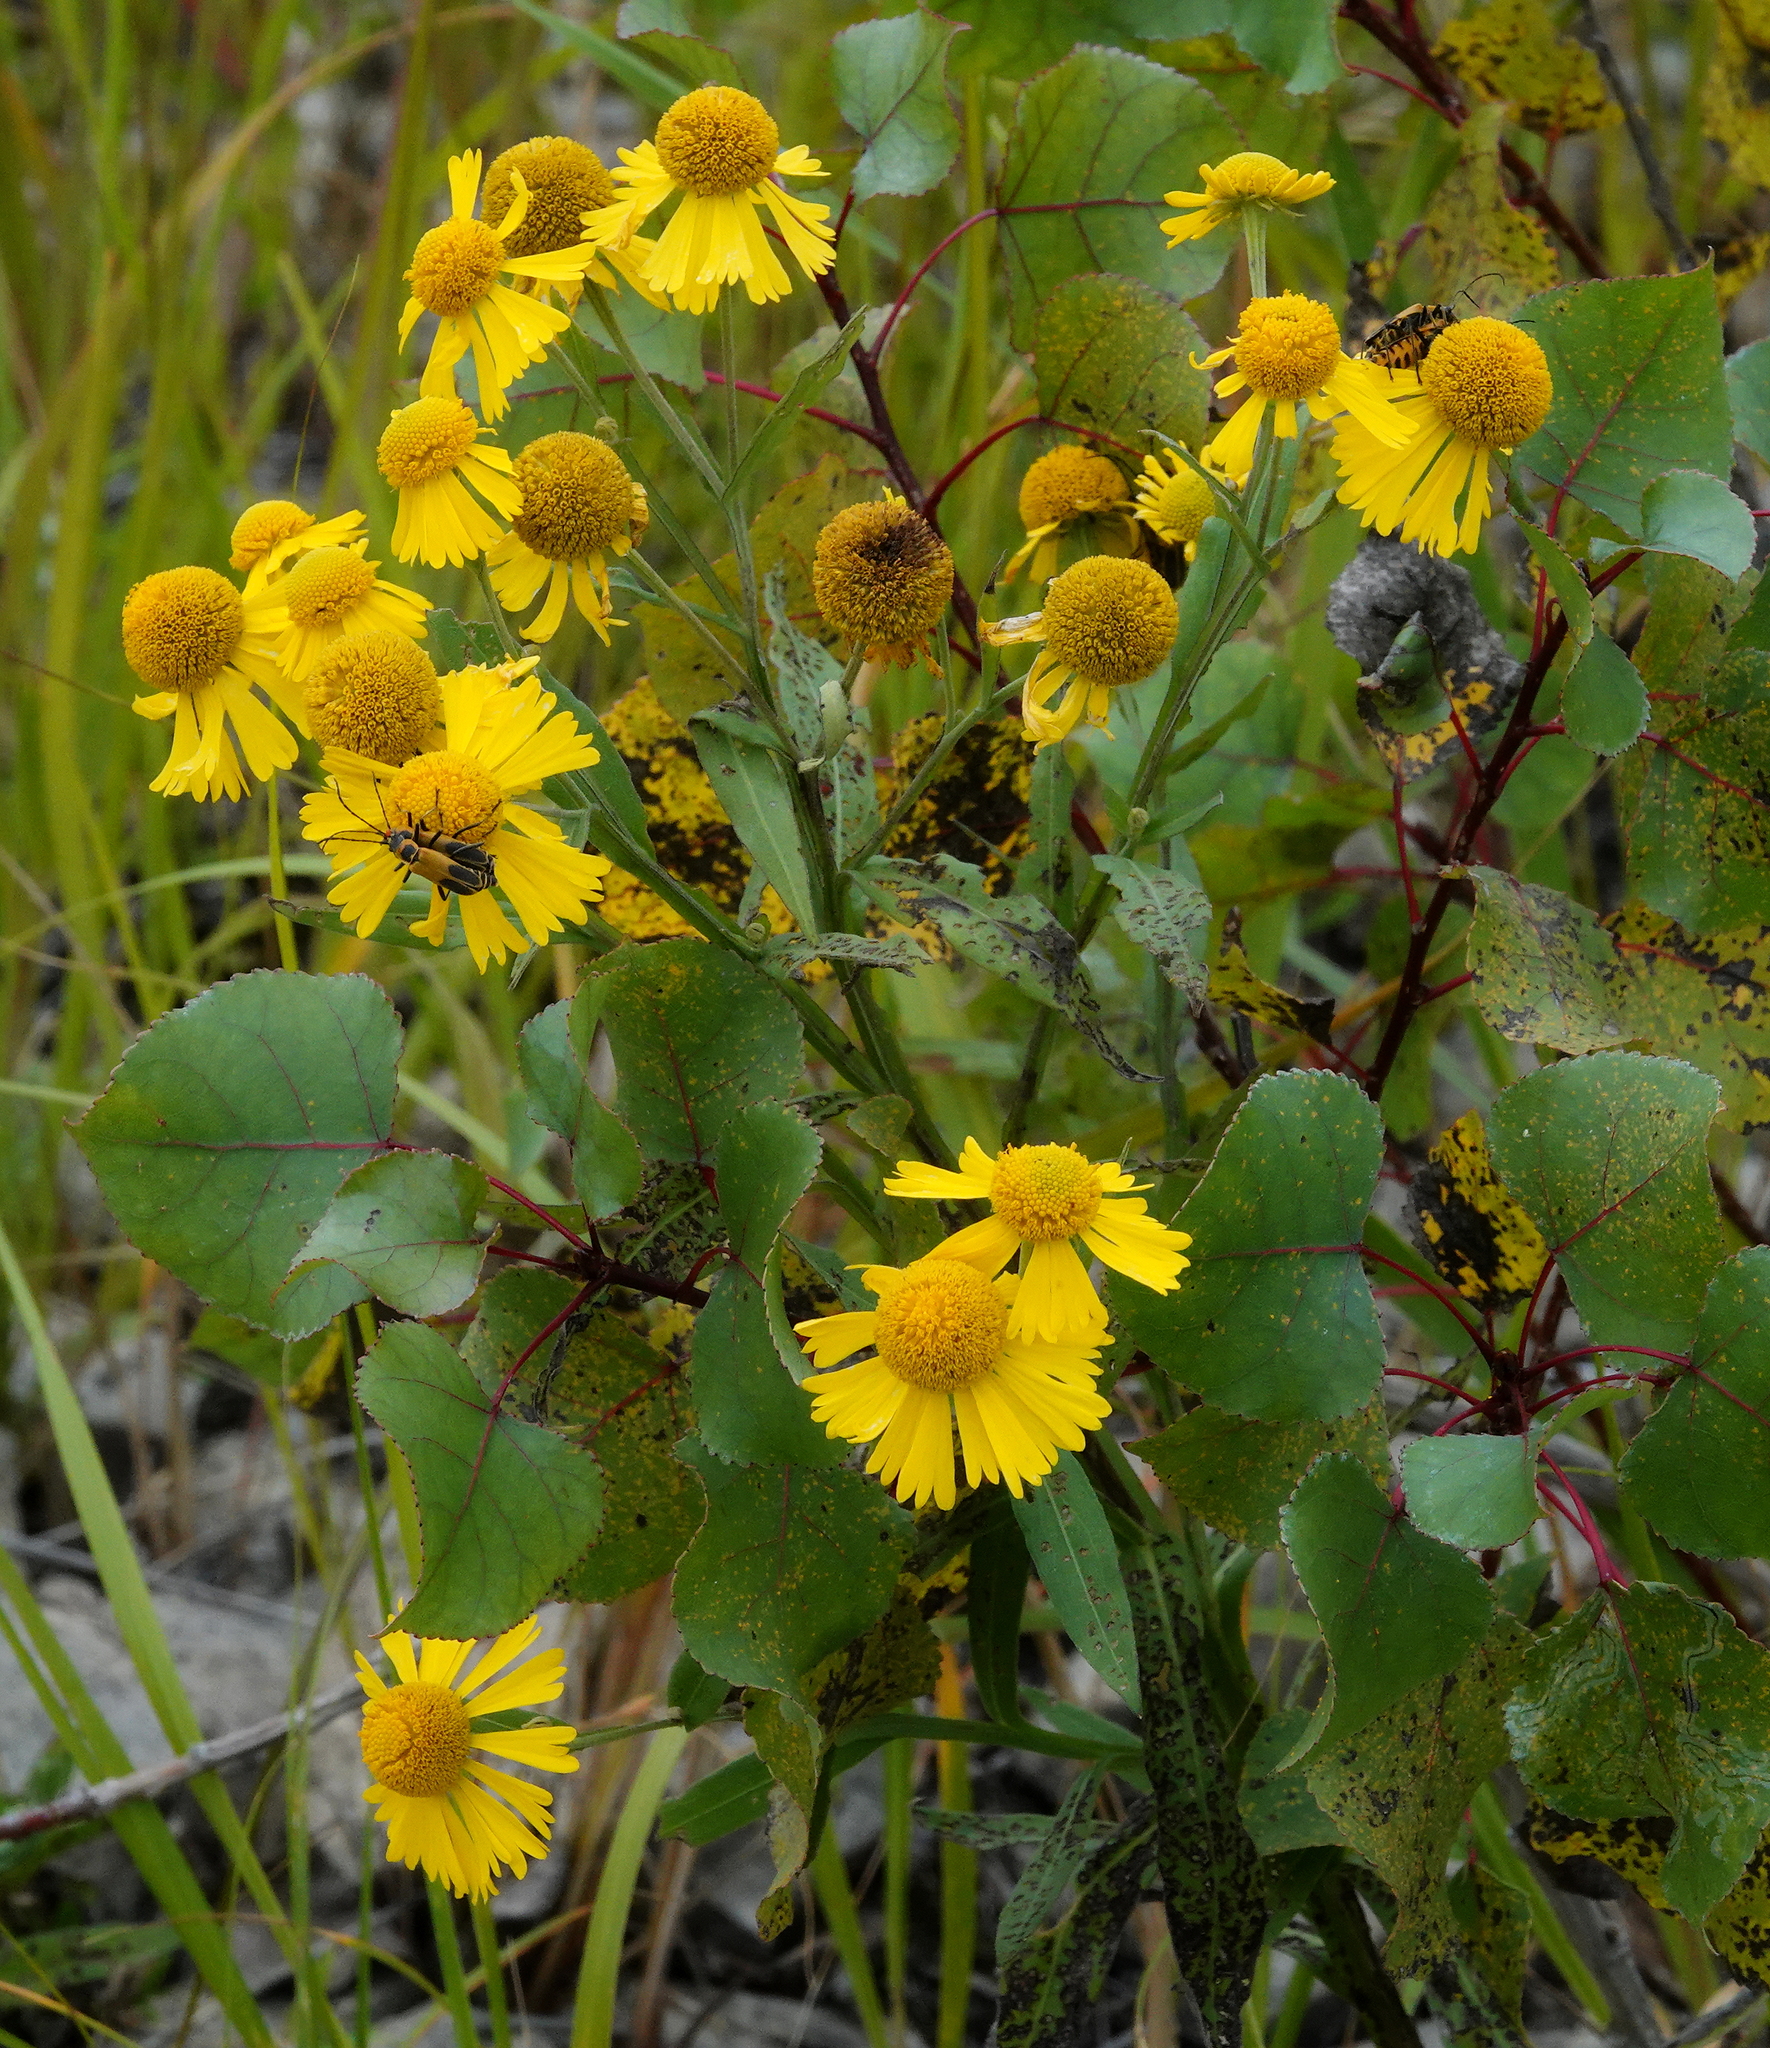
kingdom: Plantae
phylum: Tracheophyta
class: Magnoliopsida
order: Asterales
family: Asteraceae
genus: Helenium
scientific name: Helenium autumnale
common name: Sneezeweed
